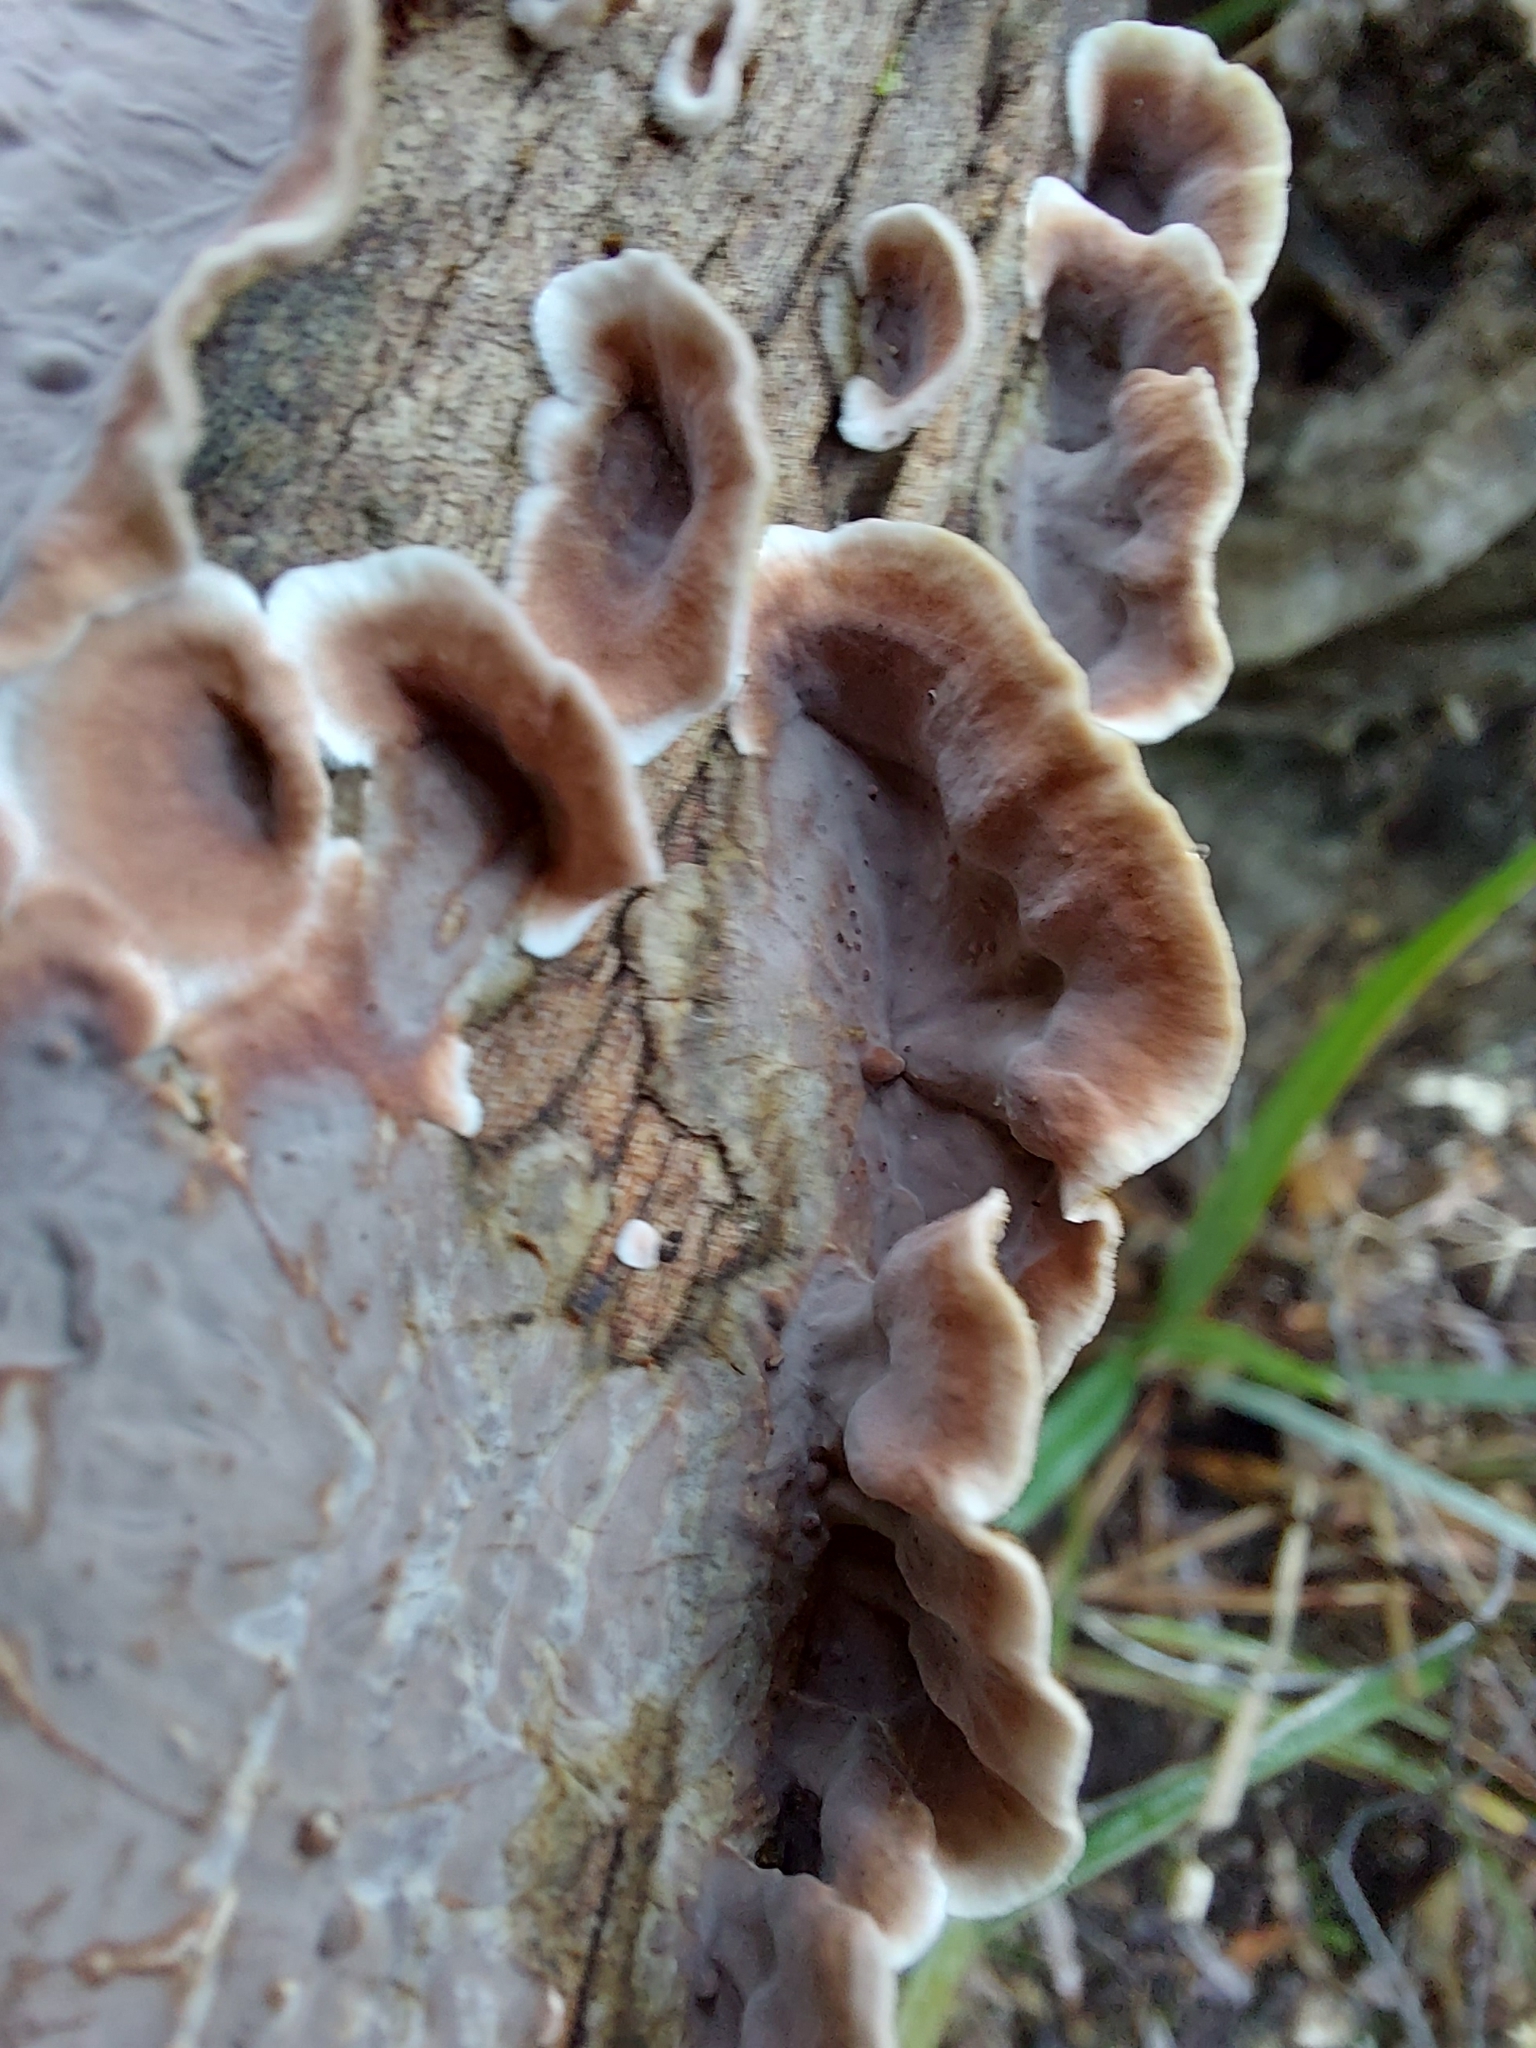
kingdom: Fungi
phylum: Basidiomycota
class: Agaricomycetes
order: Russulales
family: Stereaceae
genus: Xylobolus
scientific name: Xylobolus illudens
